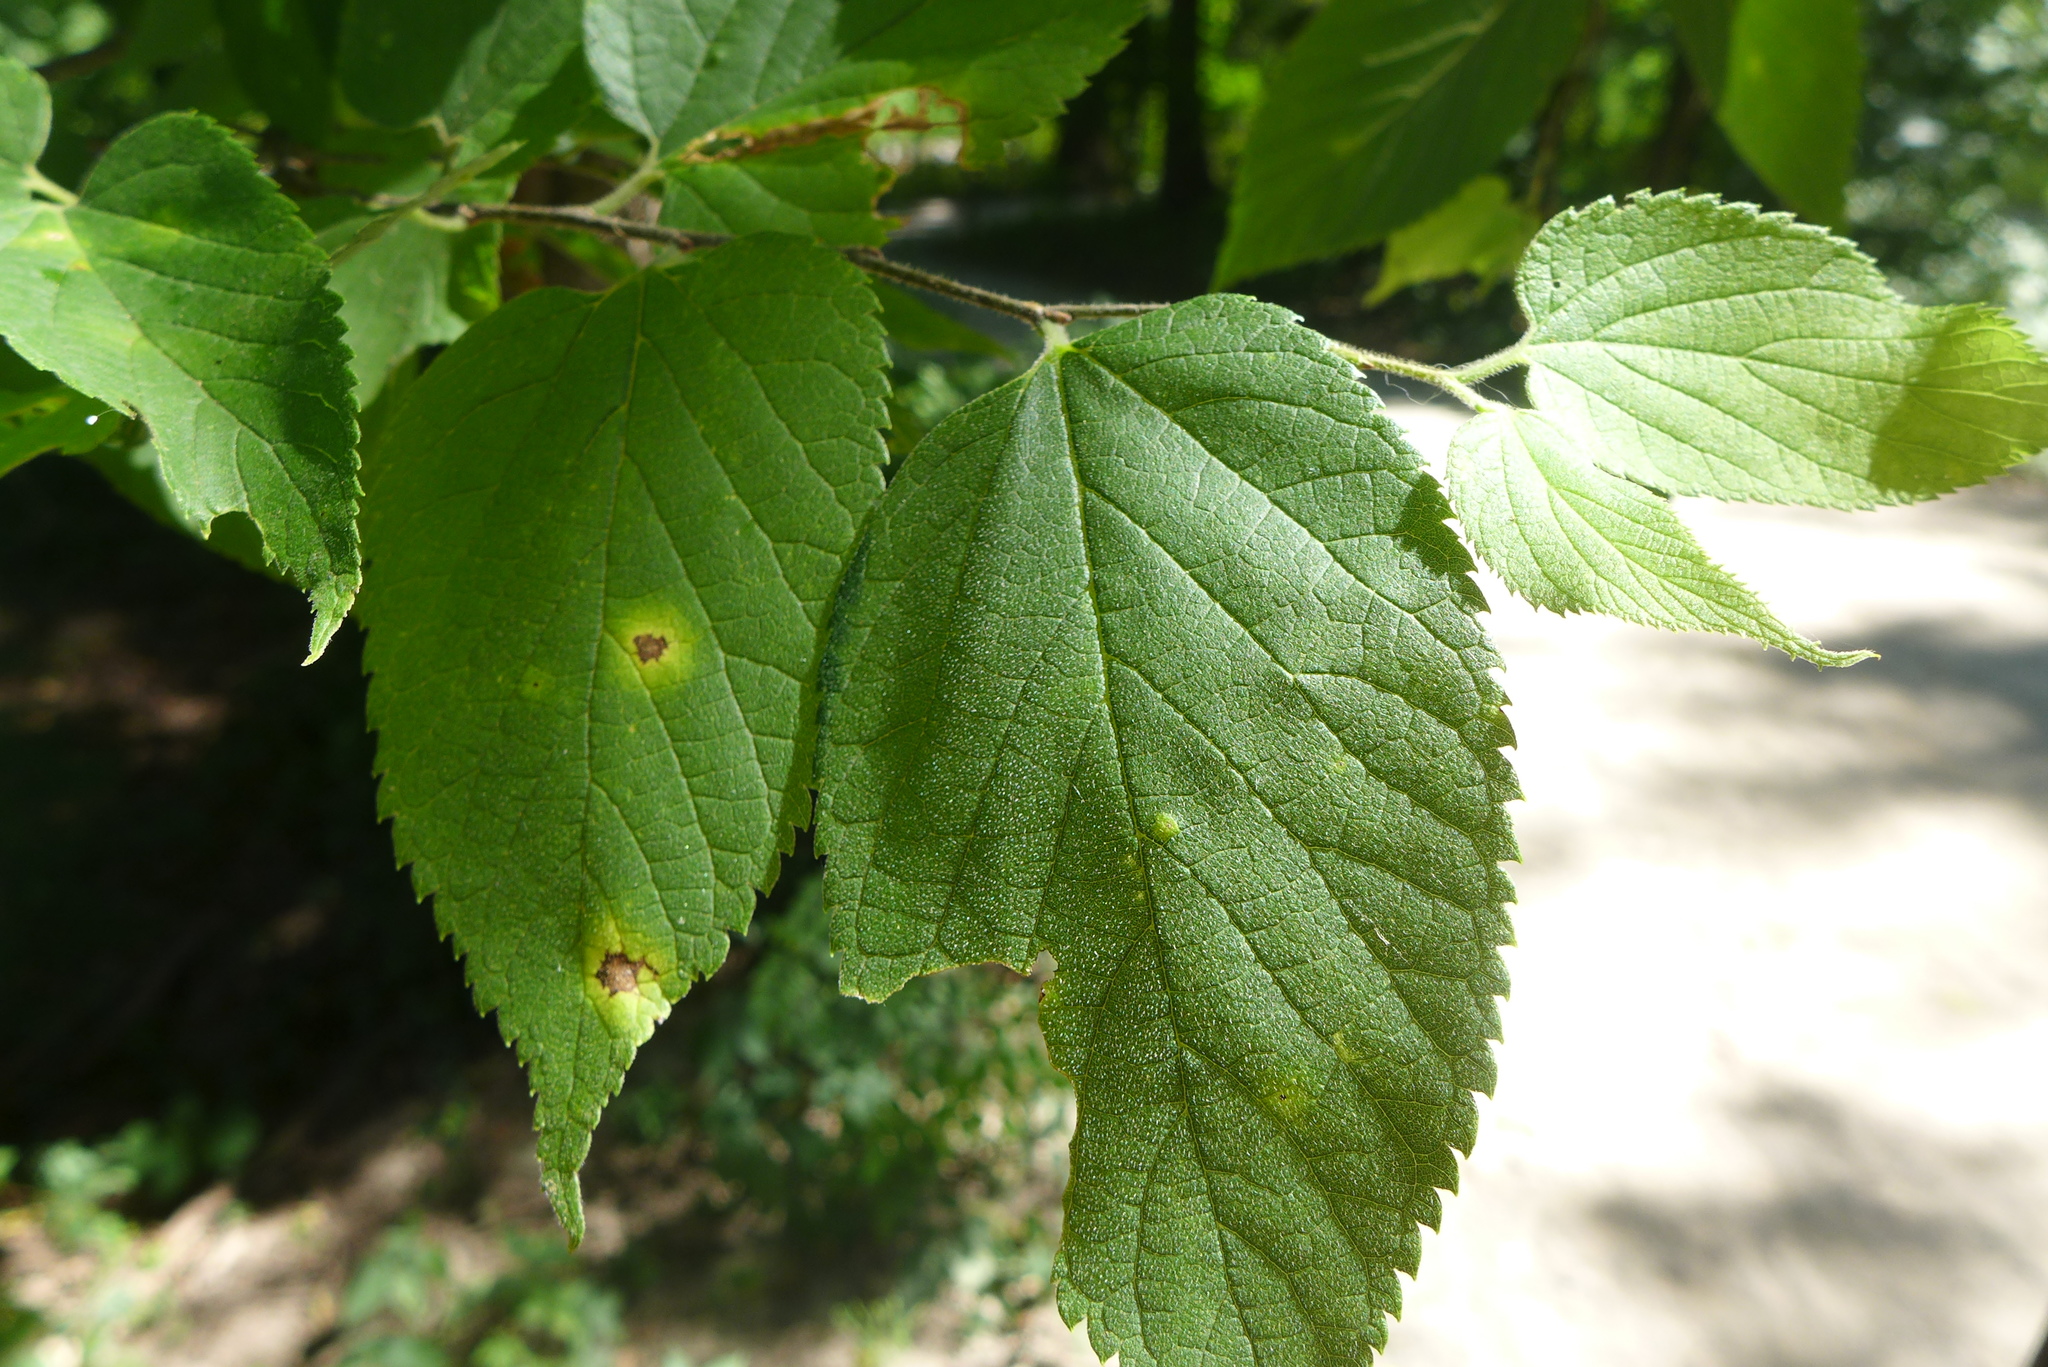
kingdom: Plantae
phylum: Tracheophyta
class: Magnoliopsida
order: Rosales
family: Cannabaceae
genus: Celtis
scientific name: Celtis occidentalis
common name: Common hackberry
